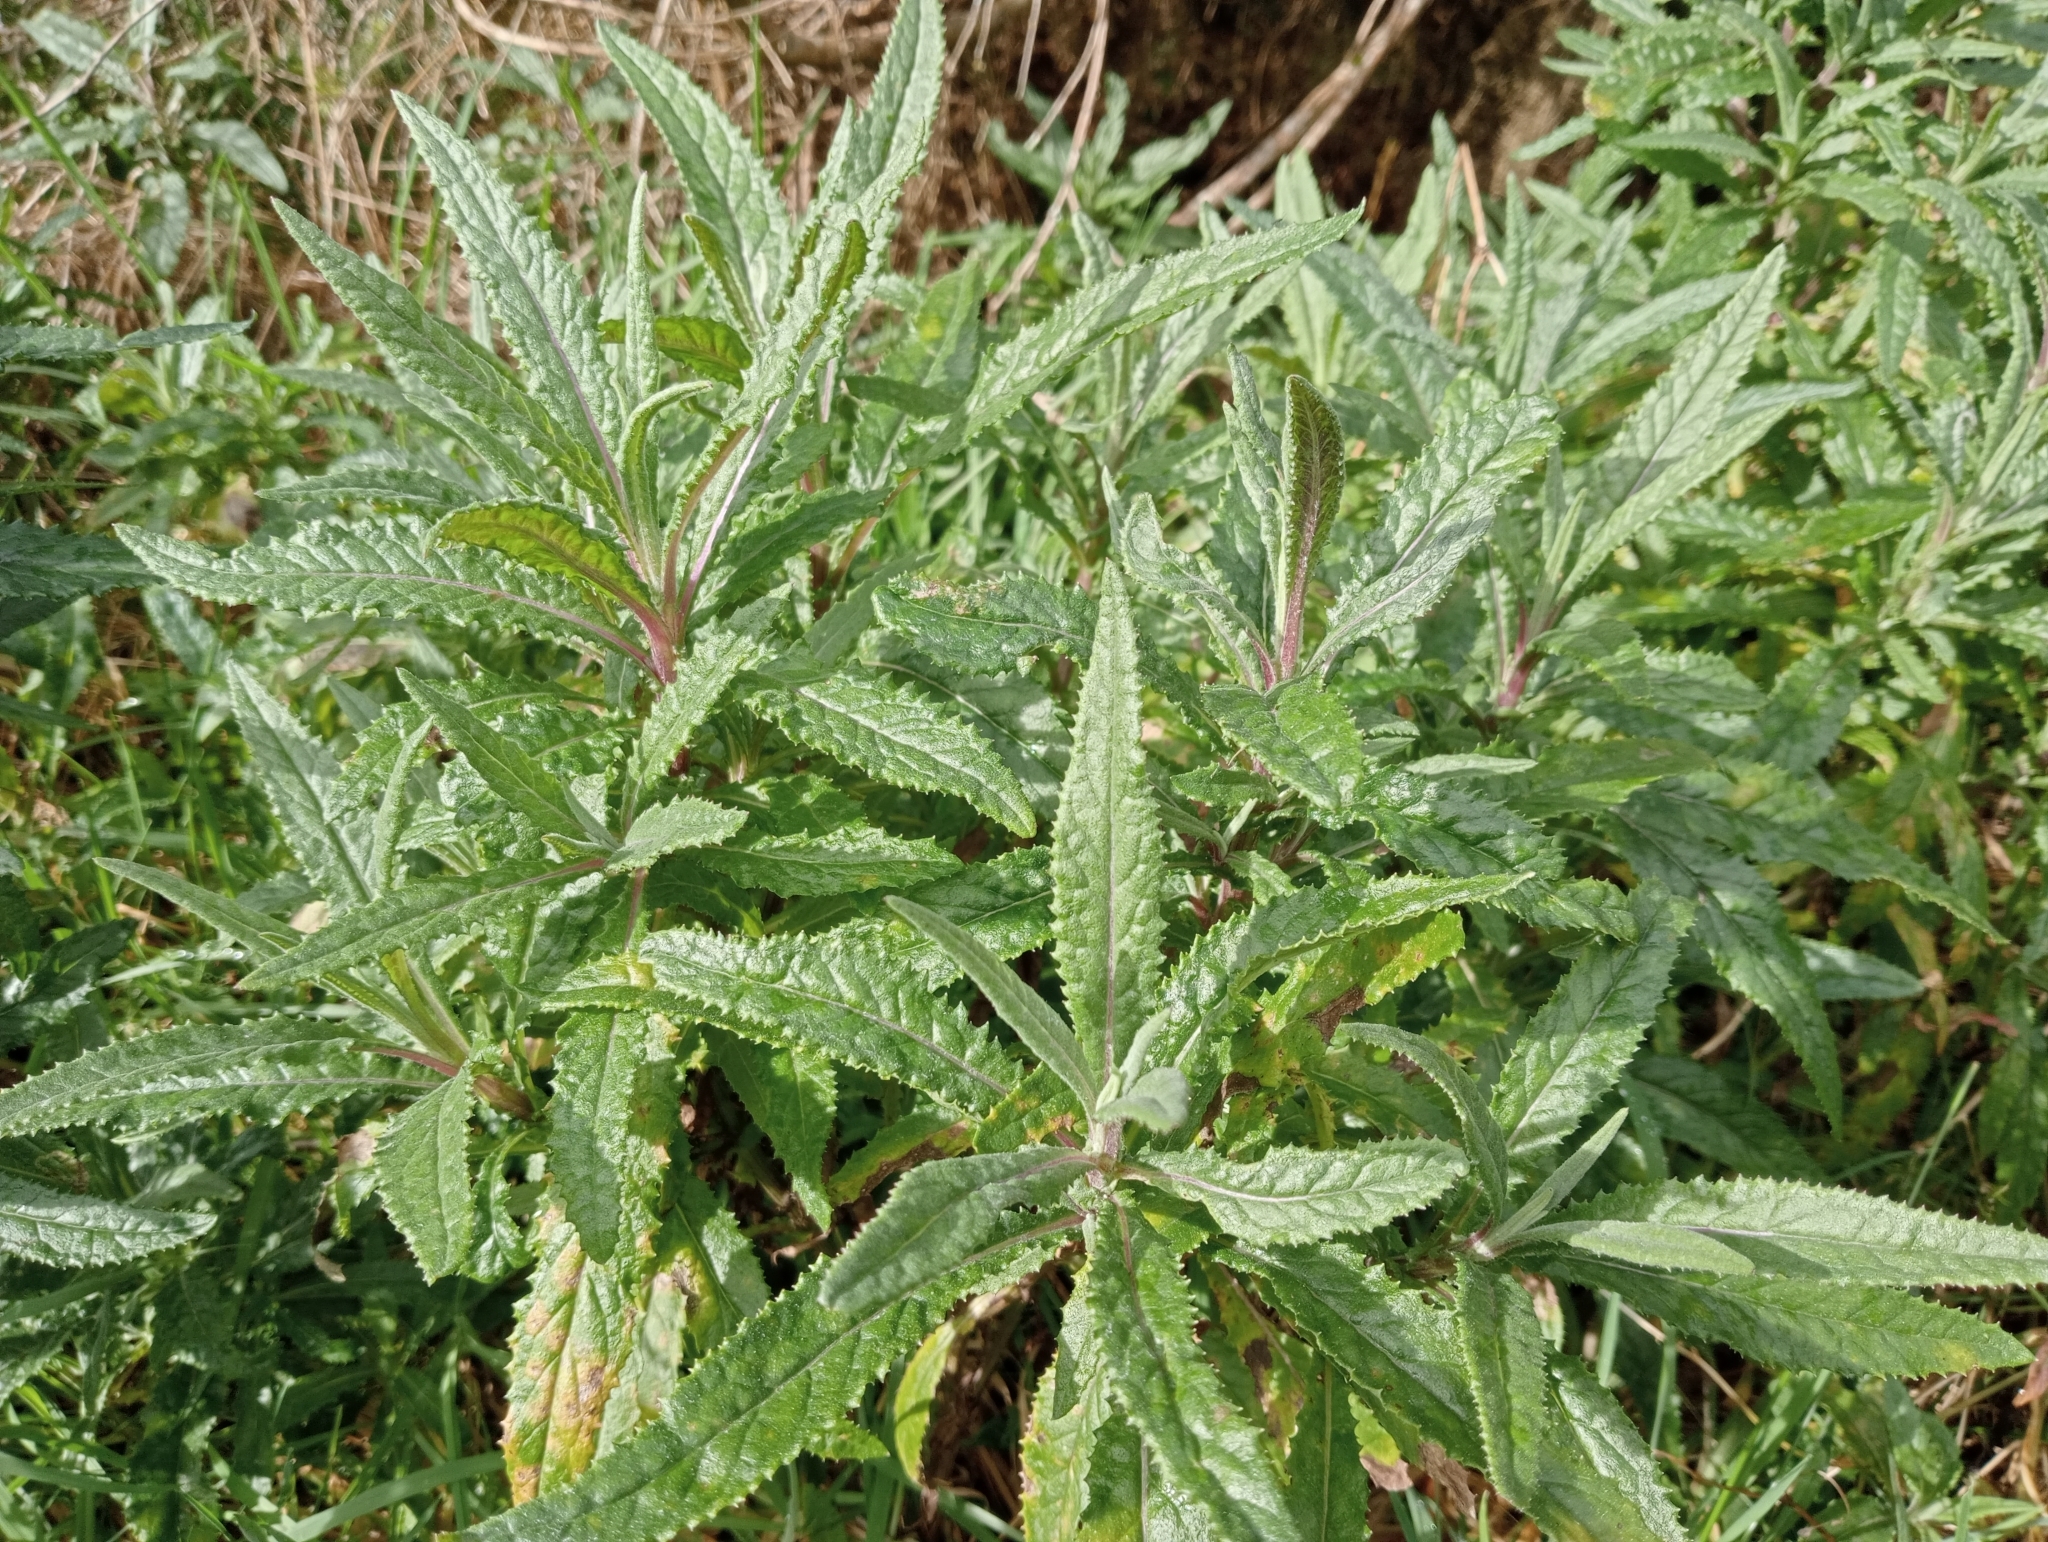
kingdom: Plantae
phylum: Tracheophyta
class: Magnoliopsida
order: Asterales
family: Asteraceae
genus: Senecio
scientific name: Senecio minimus
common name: Toothed fireweed
